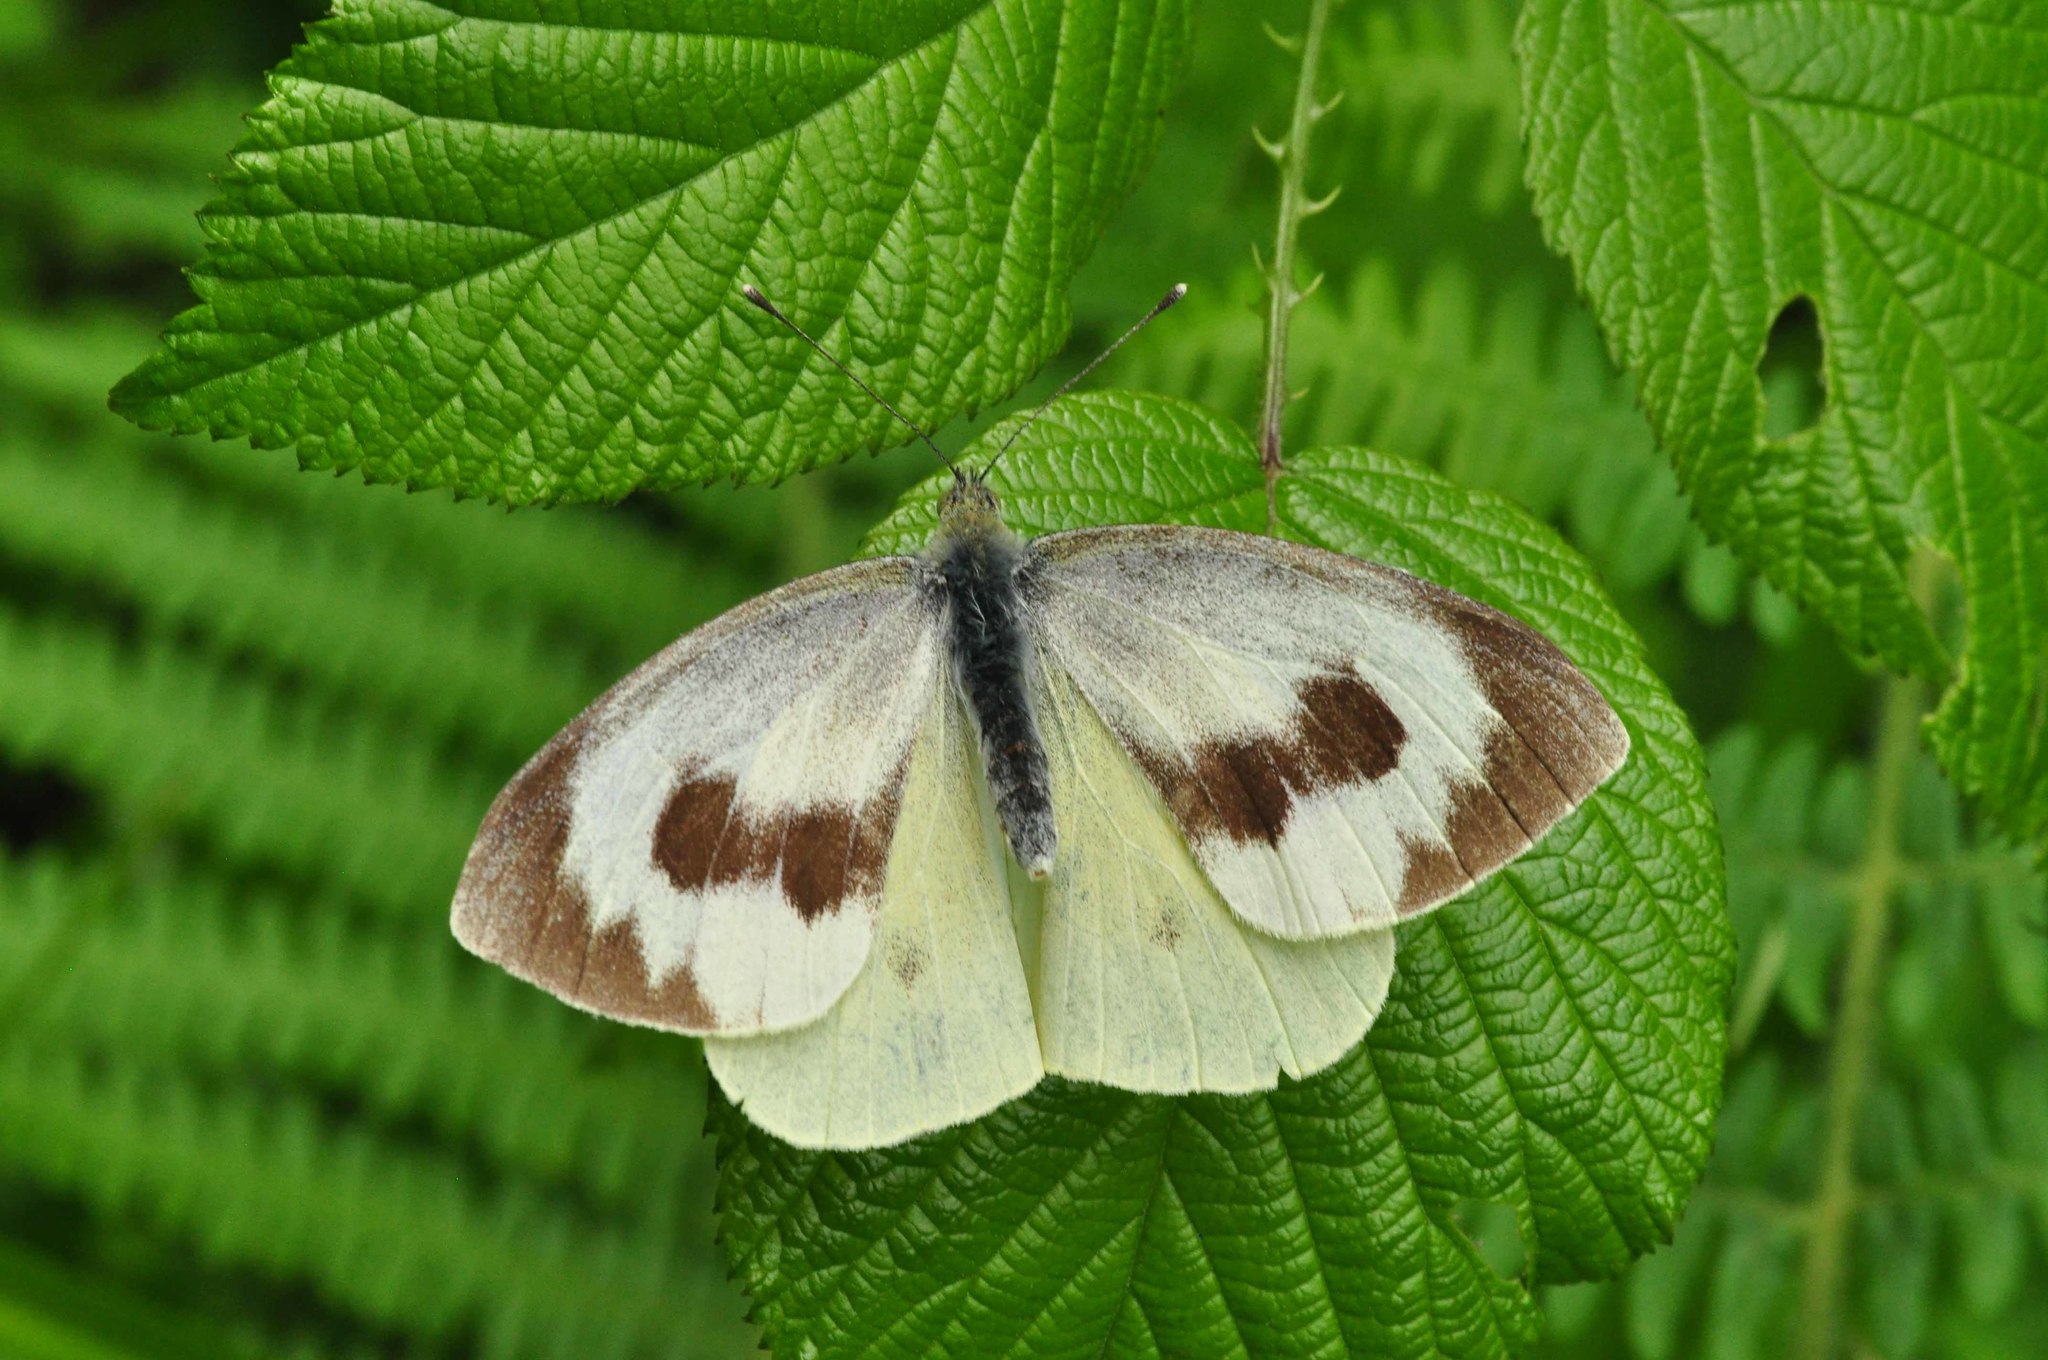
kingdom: Animalia
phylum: Arthropoda
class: Insecta
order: Lepidoptera
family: Pieridae
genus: Pieris
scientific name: Pieris cheiranthi
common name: Canary islands large white
